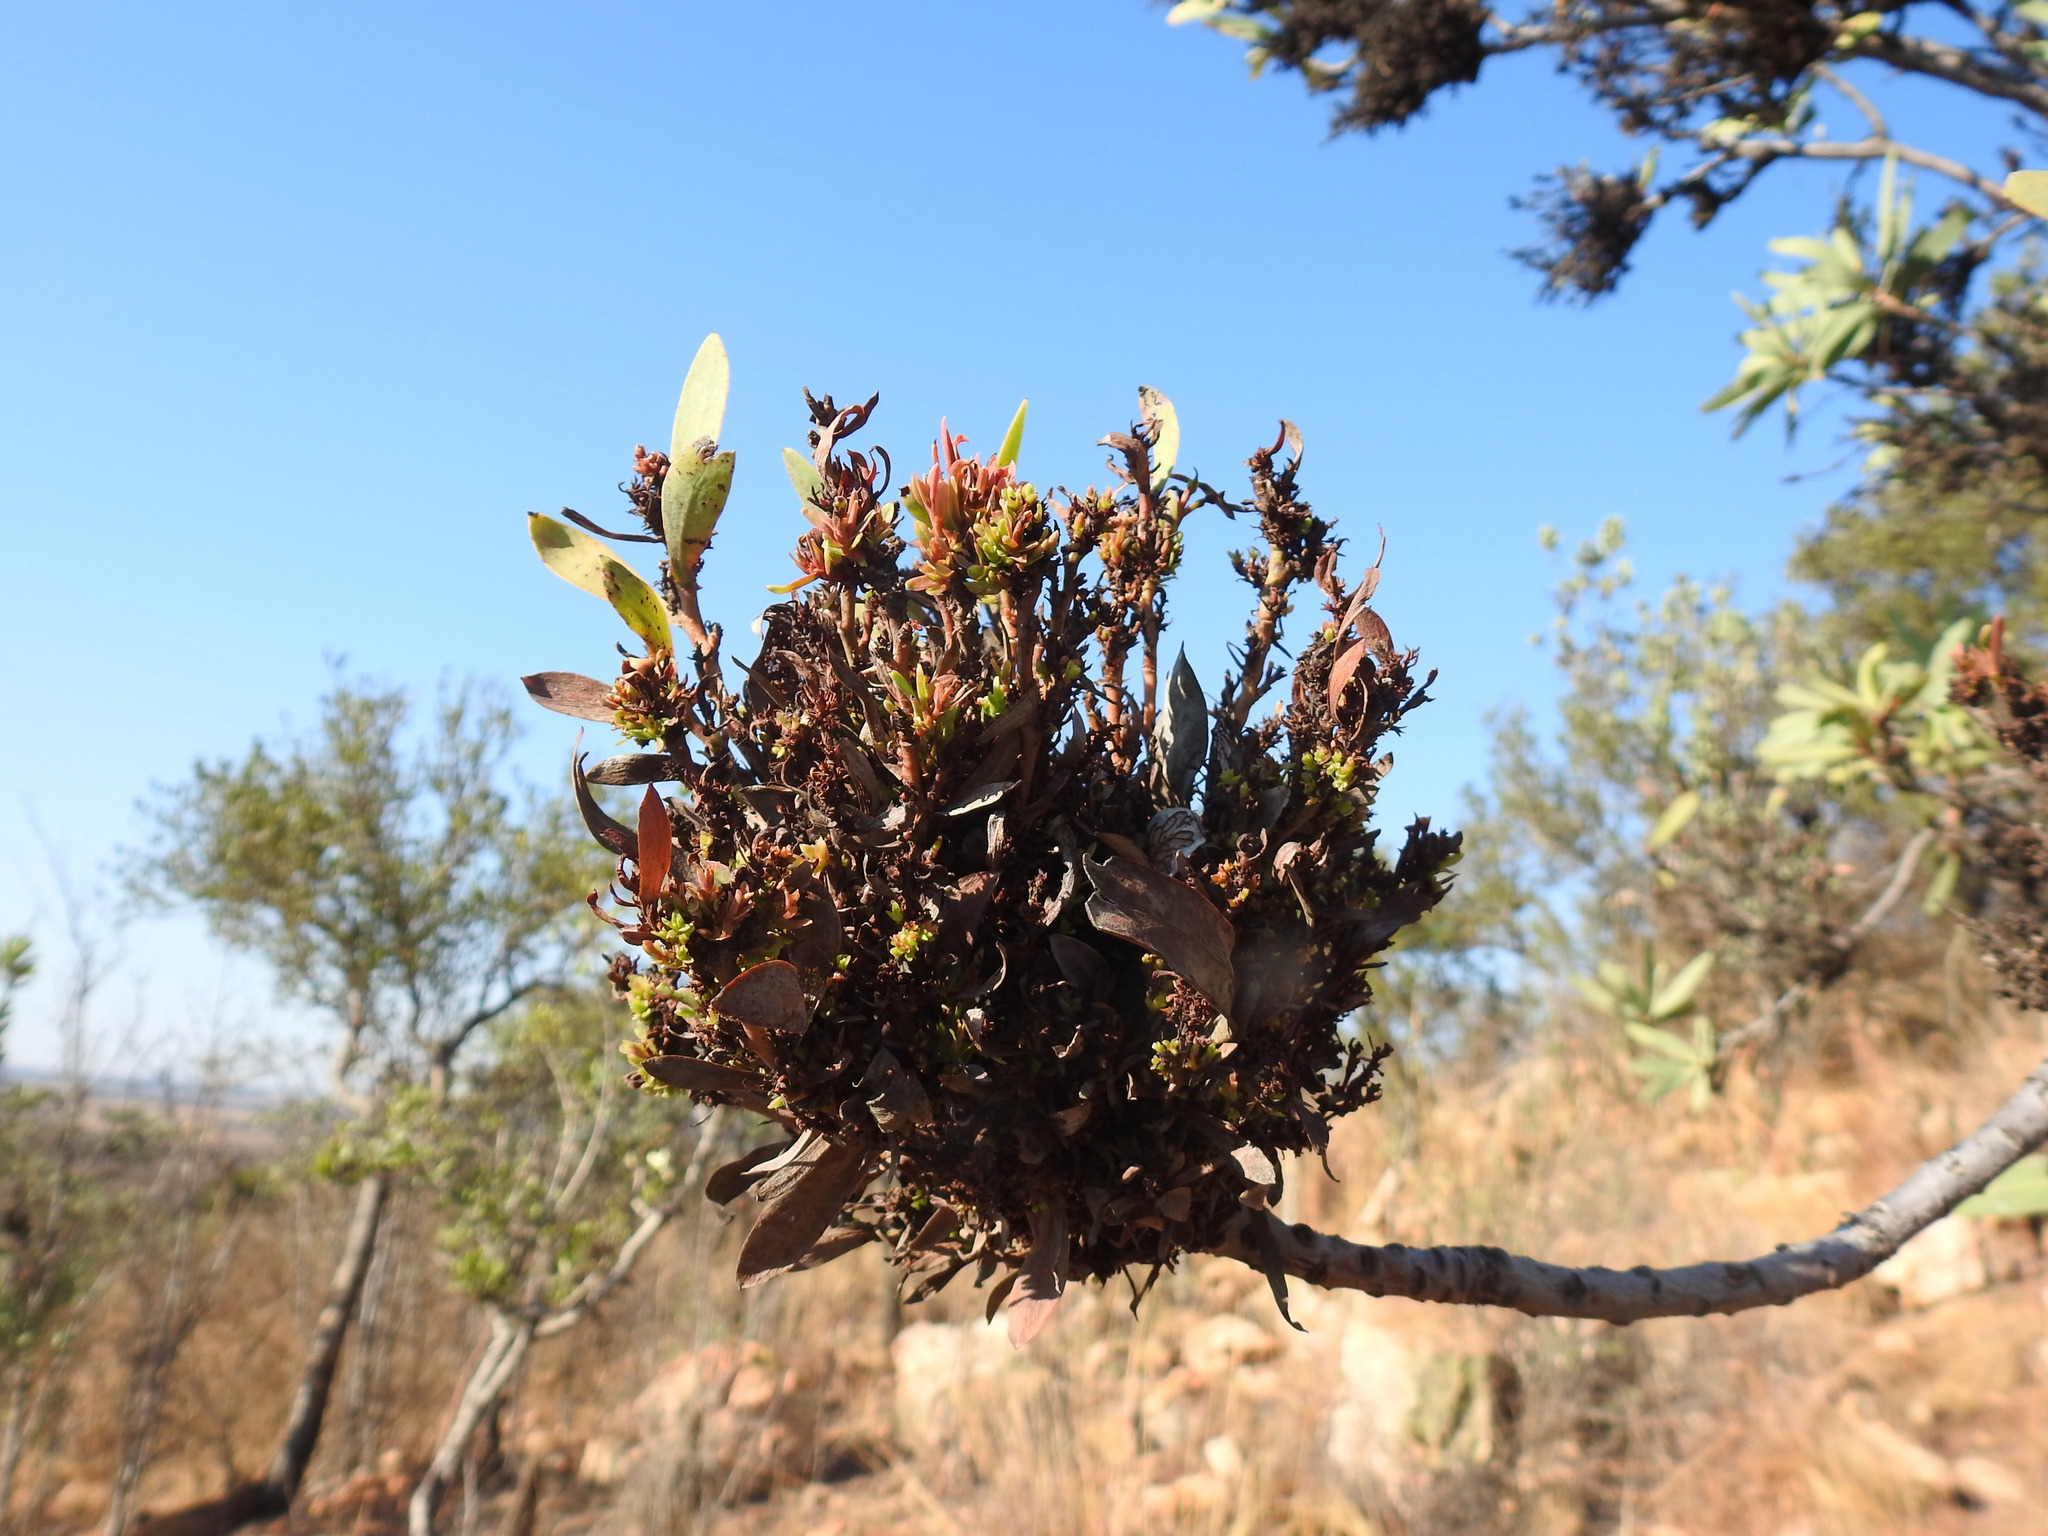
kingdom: Bacteria
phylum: Firmicutes
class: Bacilli
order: Acholeplasmatales
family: Acholeplasmataceae
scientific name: Acholeplasmataceae
